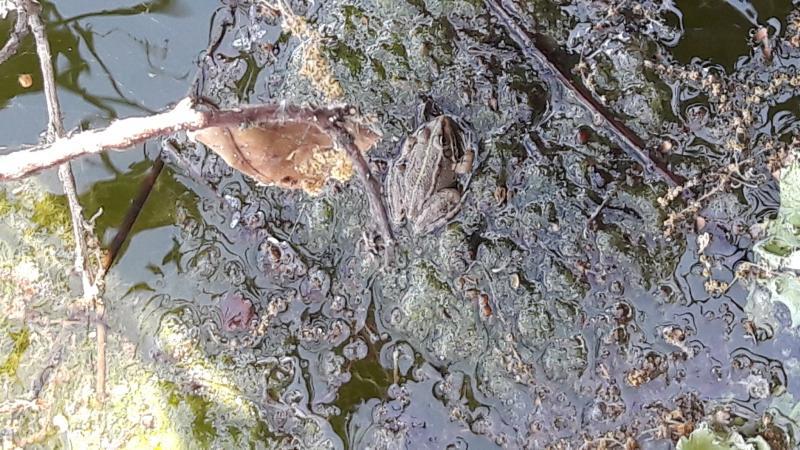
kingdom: Animalia
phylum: Chordata
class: Amphibia
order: Anura
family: Ranidae
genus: Pelophylax
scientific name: Pelophylax perezi
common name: Perez's frog
